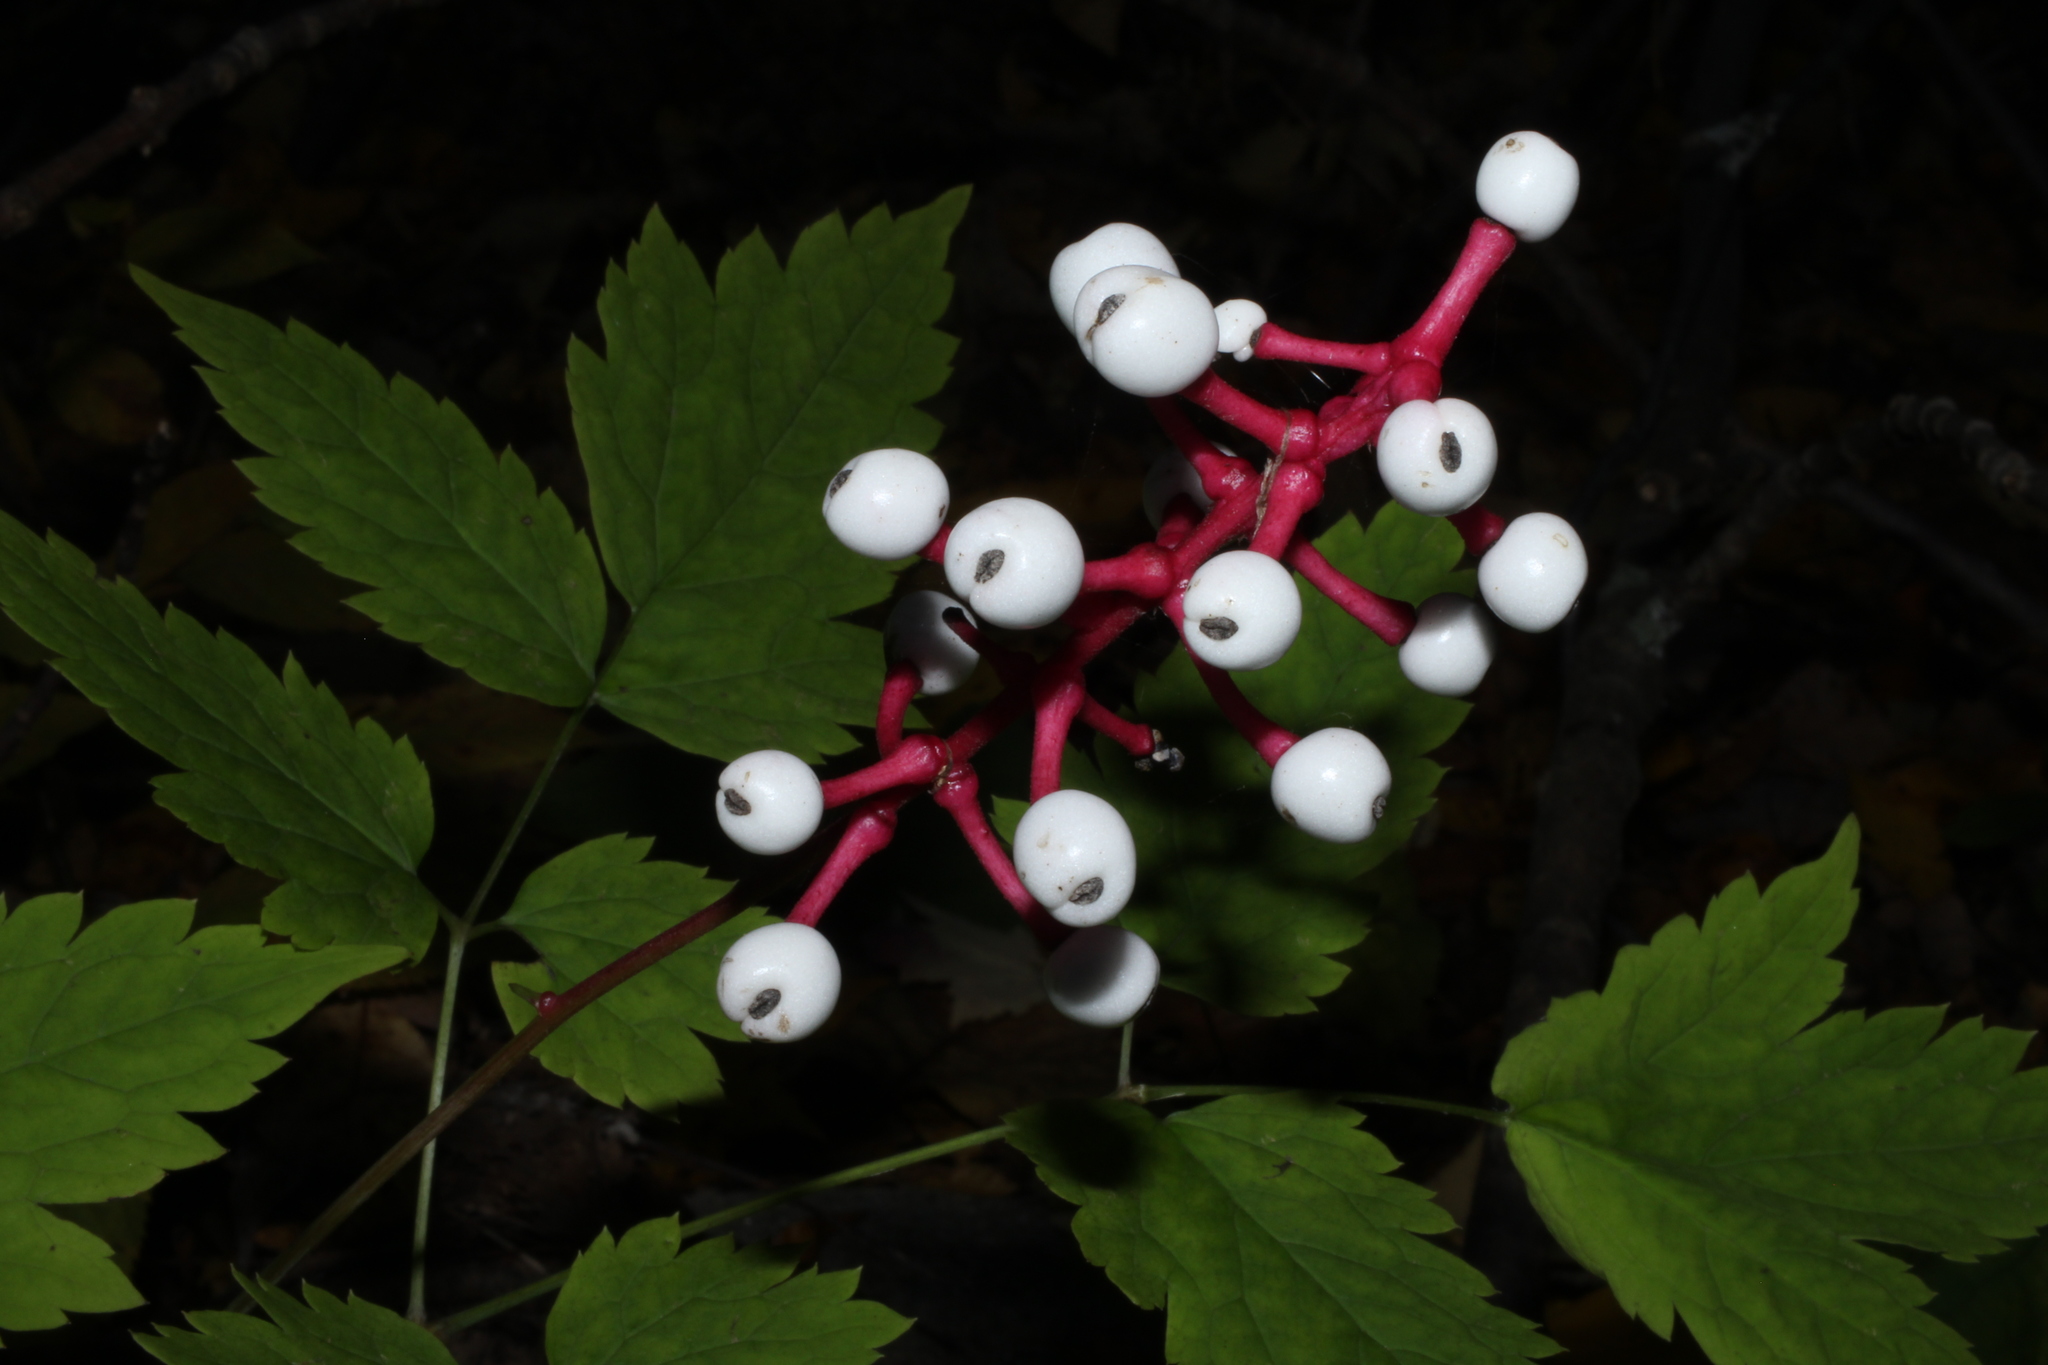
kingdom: Plantae
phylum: Tracheophyta
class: Magnoliopsida
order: Ranunculales
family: Ranunculaceae
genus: Actaea
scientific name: Actaea pachypoda
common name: Doll's-eyes
